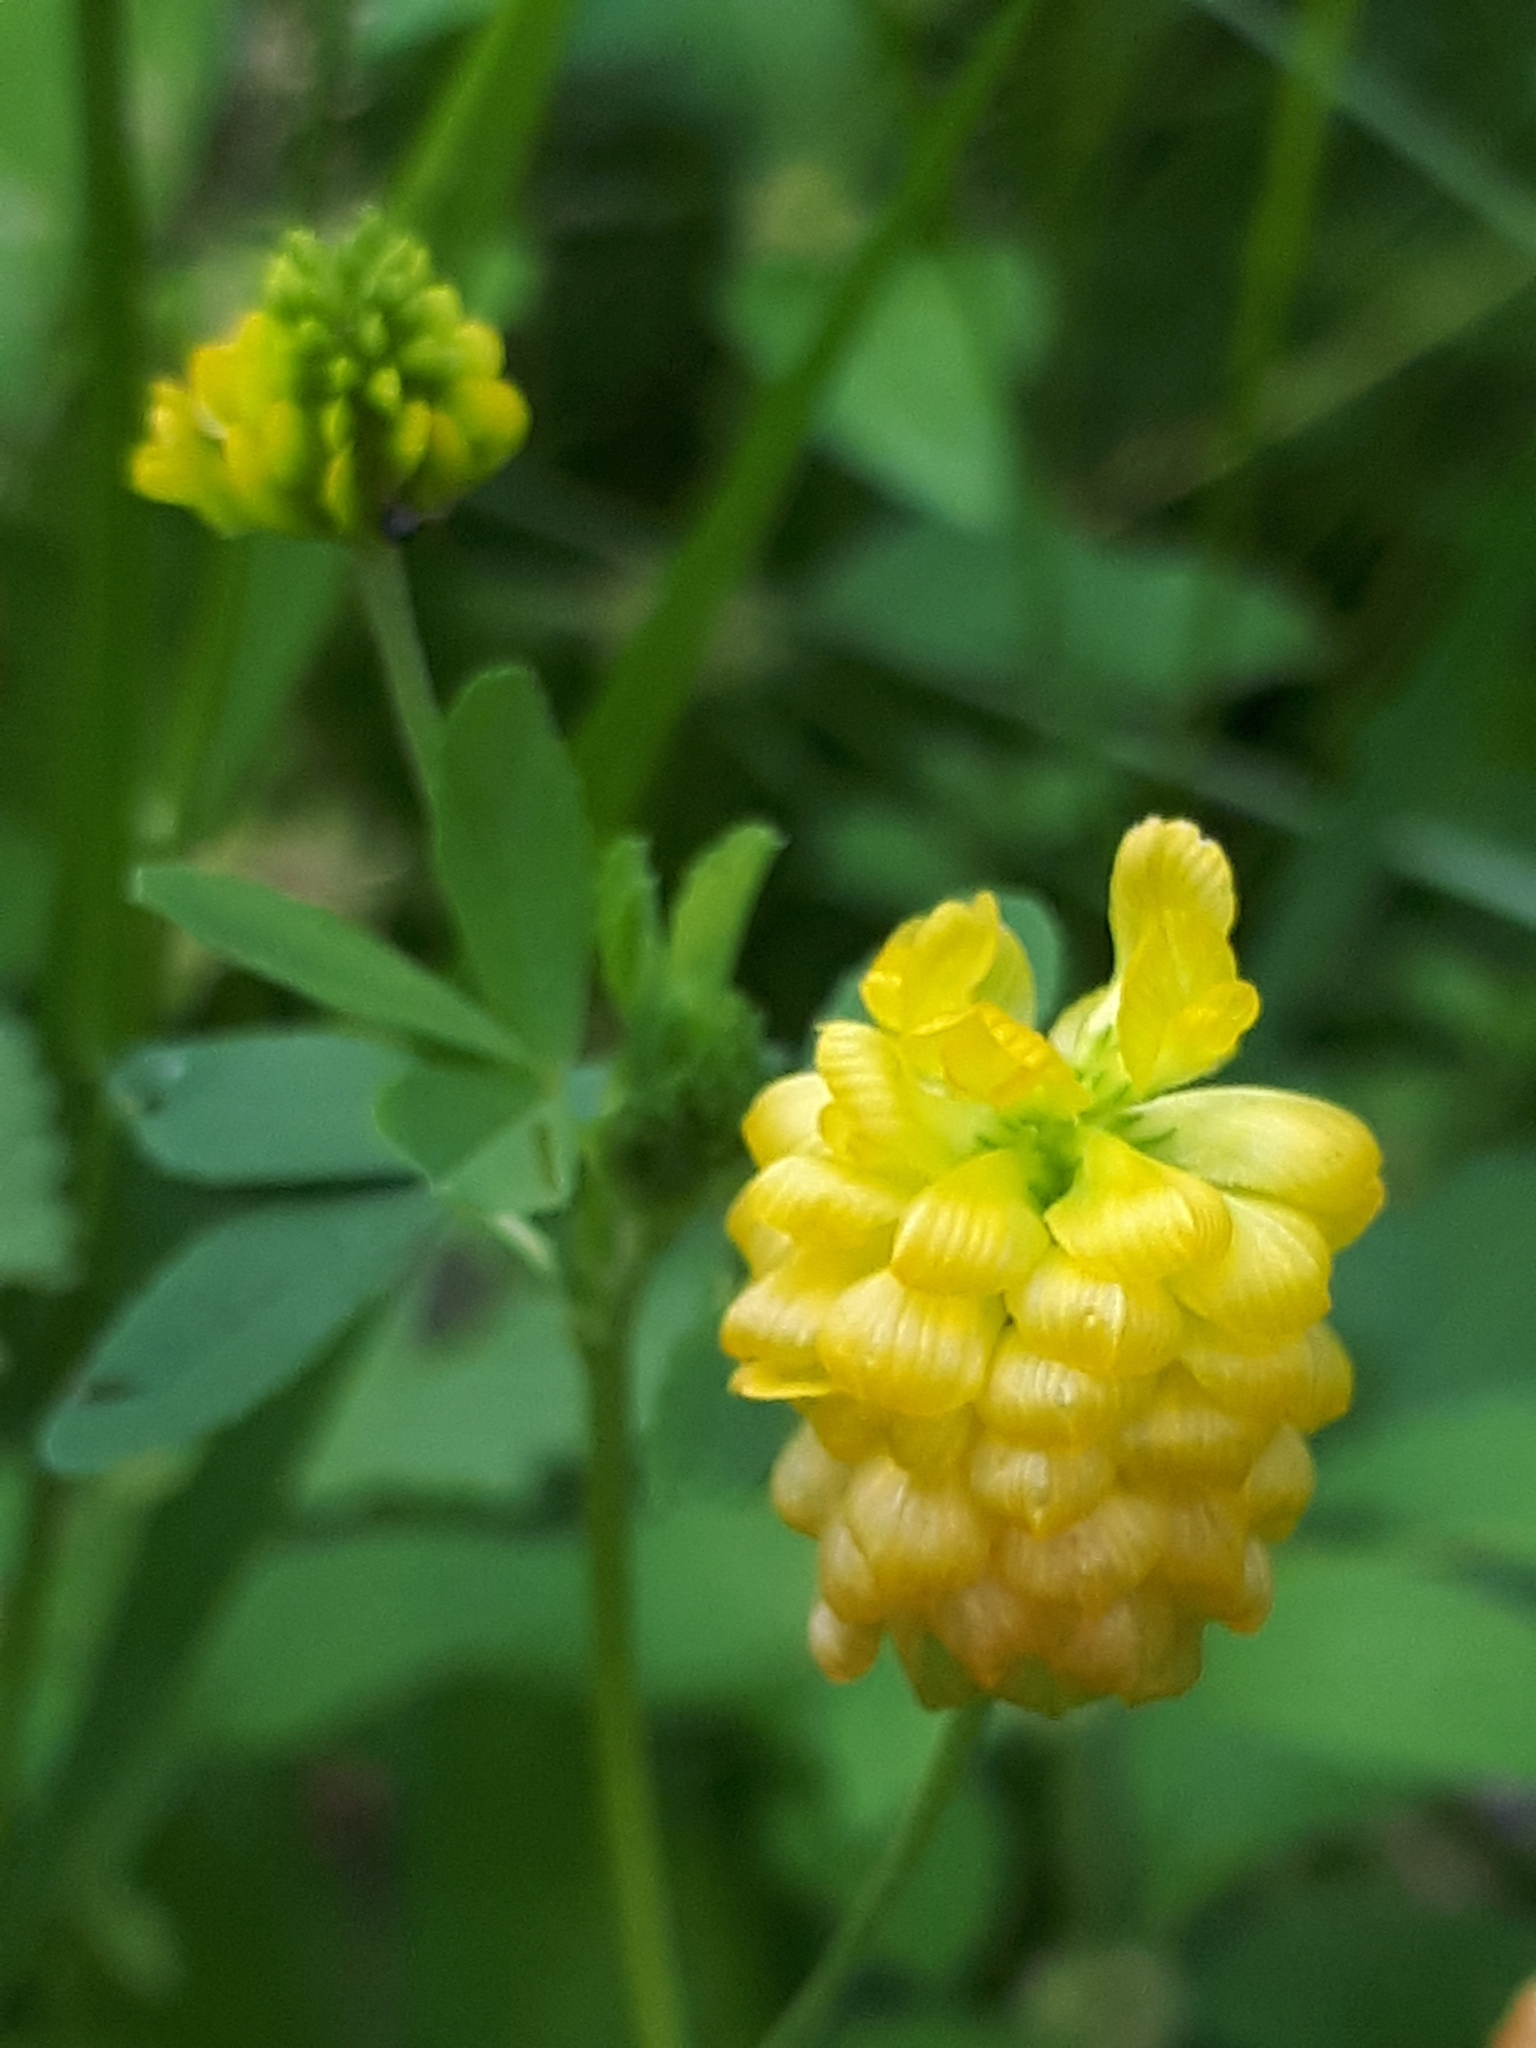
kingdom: Plantae
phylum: Tracheophyta
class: Magnoliopsida
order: Fabales
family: Fabaceae
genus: Trifolium
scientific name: Trifolium aureum
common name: Golden clover
